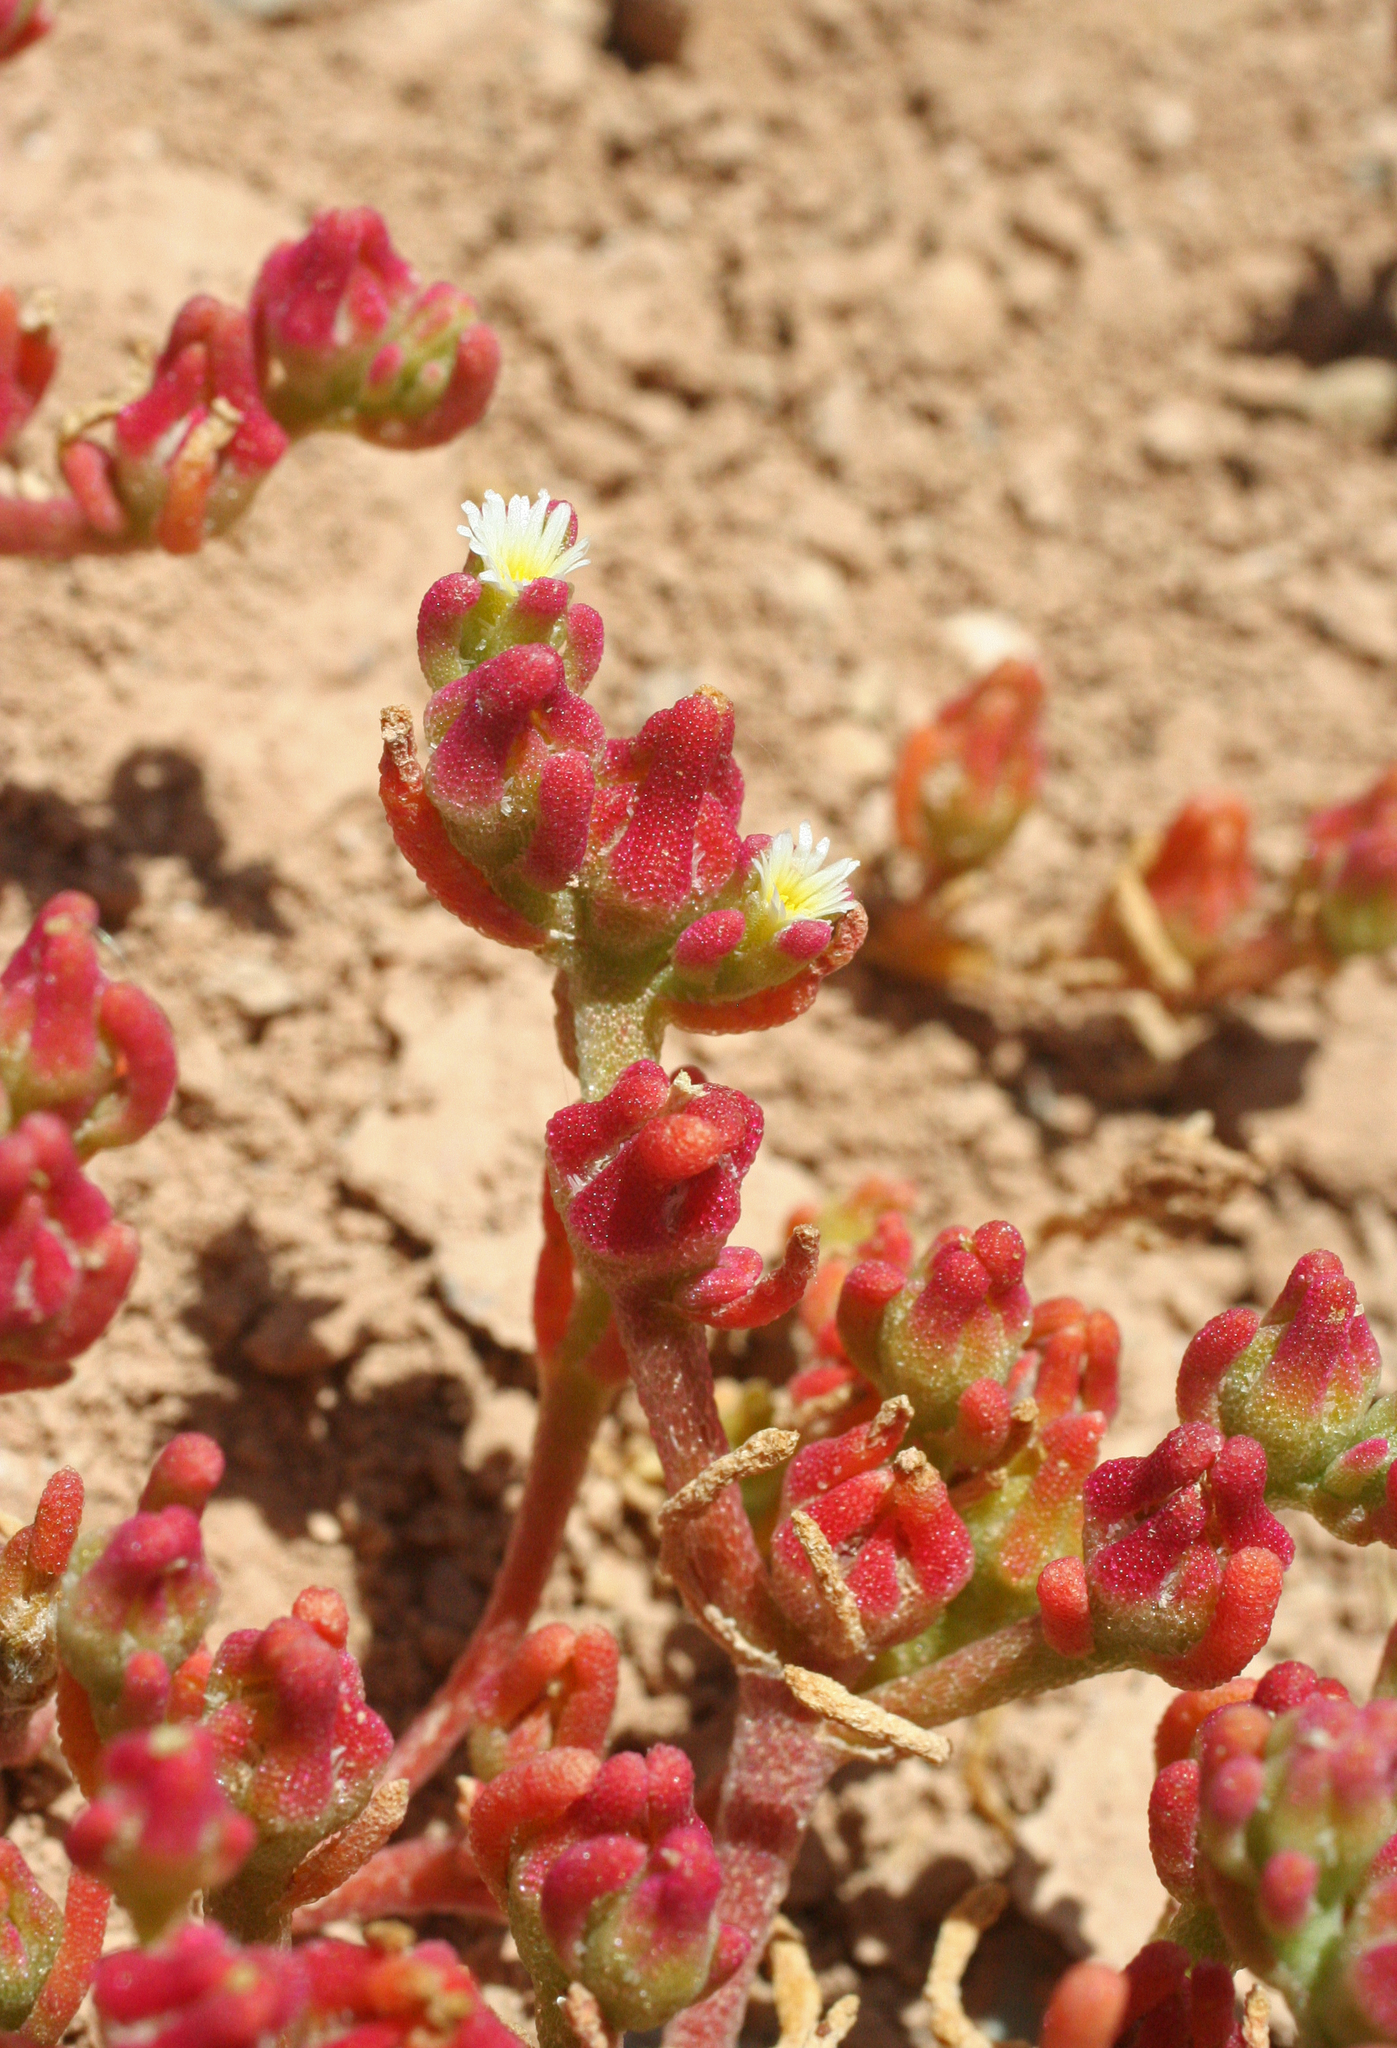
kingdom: Plantae
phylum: Tracheophyta
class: Magnoliopsida
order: Caryophyllales
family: Aizoaceae
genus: Mesembryanthemum
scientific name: Mesembryanthemum nodiflorum
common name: Slenderleaf iceplant
